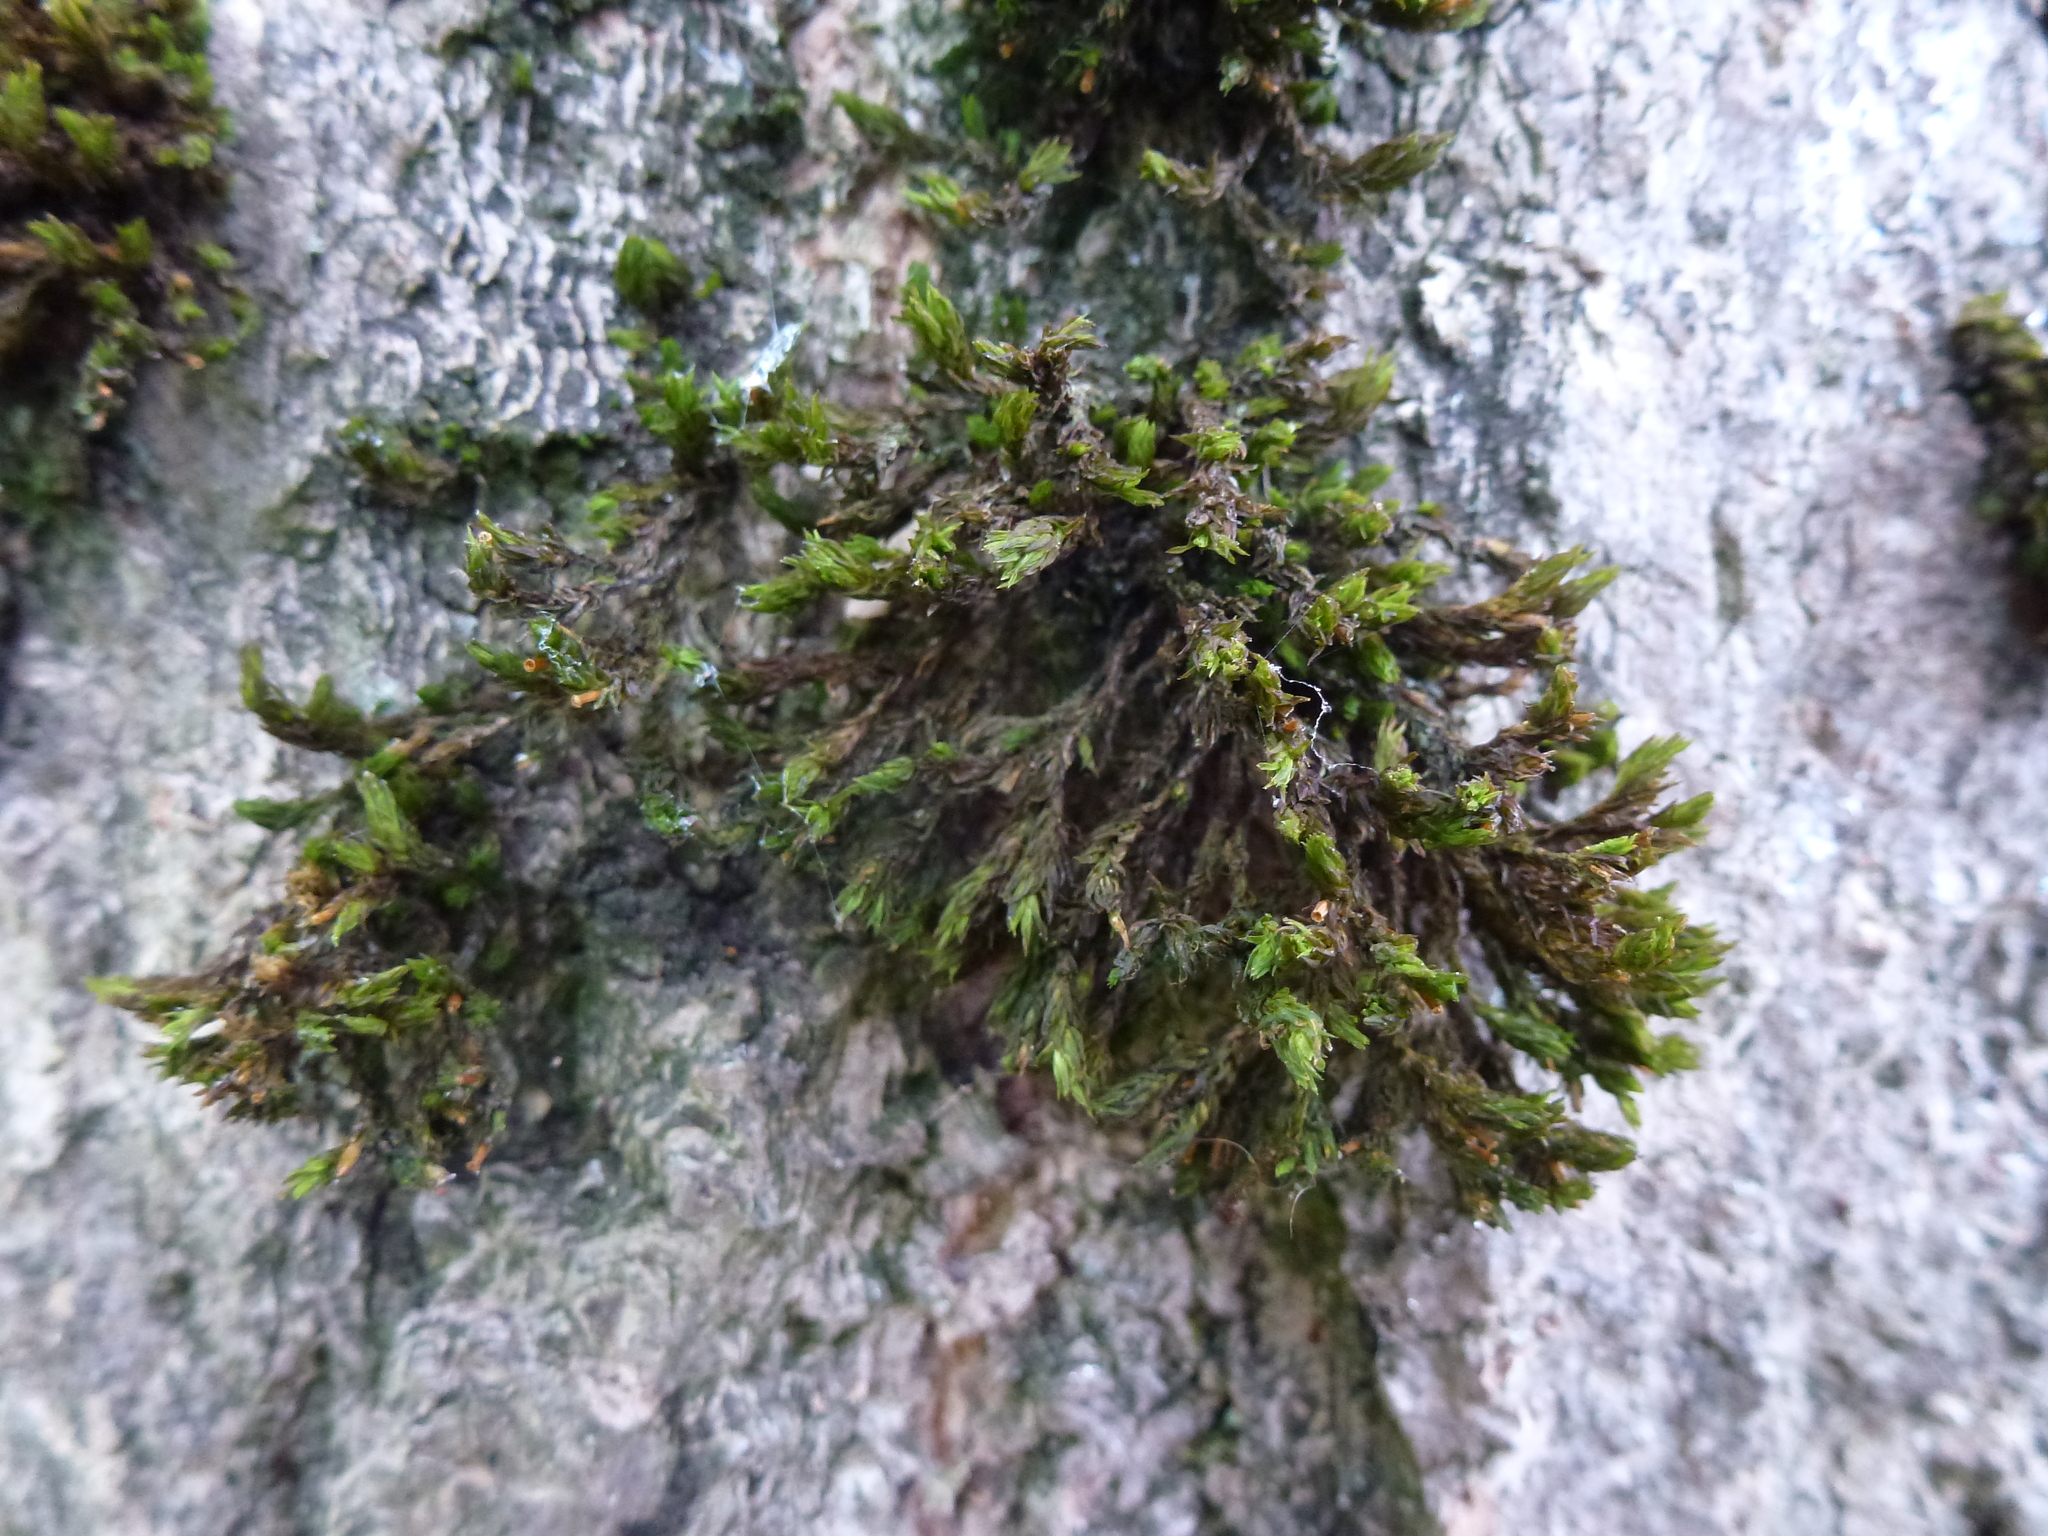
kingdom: Plantae
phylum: Bryophyta
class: Bryopsida
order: Orthotrichales
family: Orthotrichaceae
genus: Lewinskya
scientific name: Lewinskya affinis
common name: Wood bristle-moss
